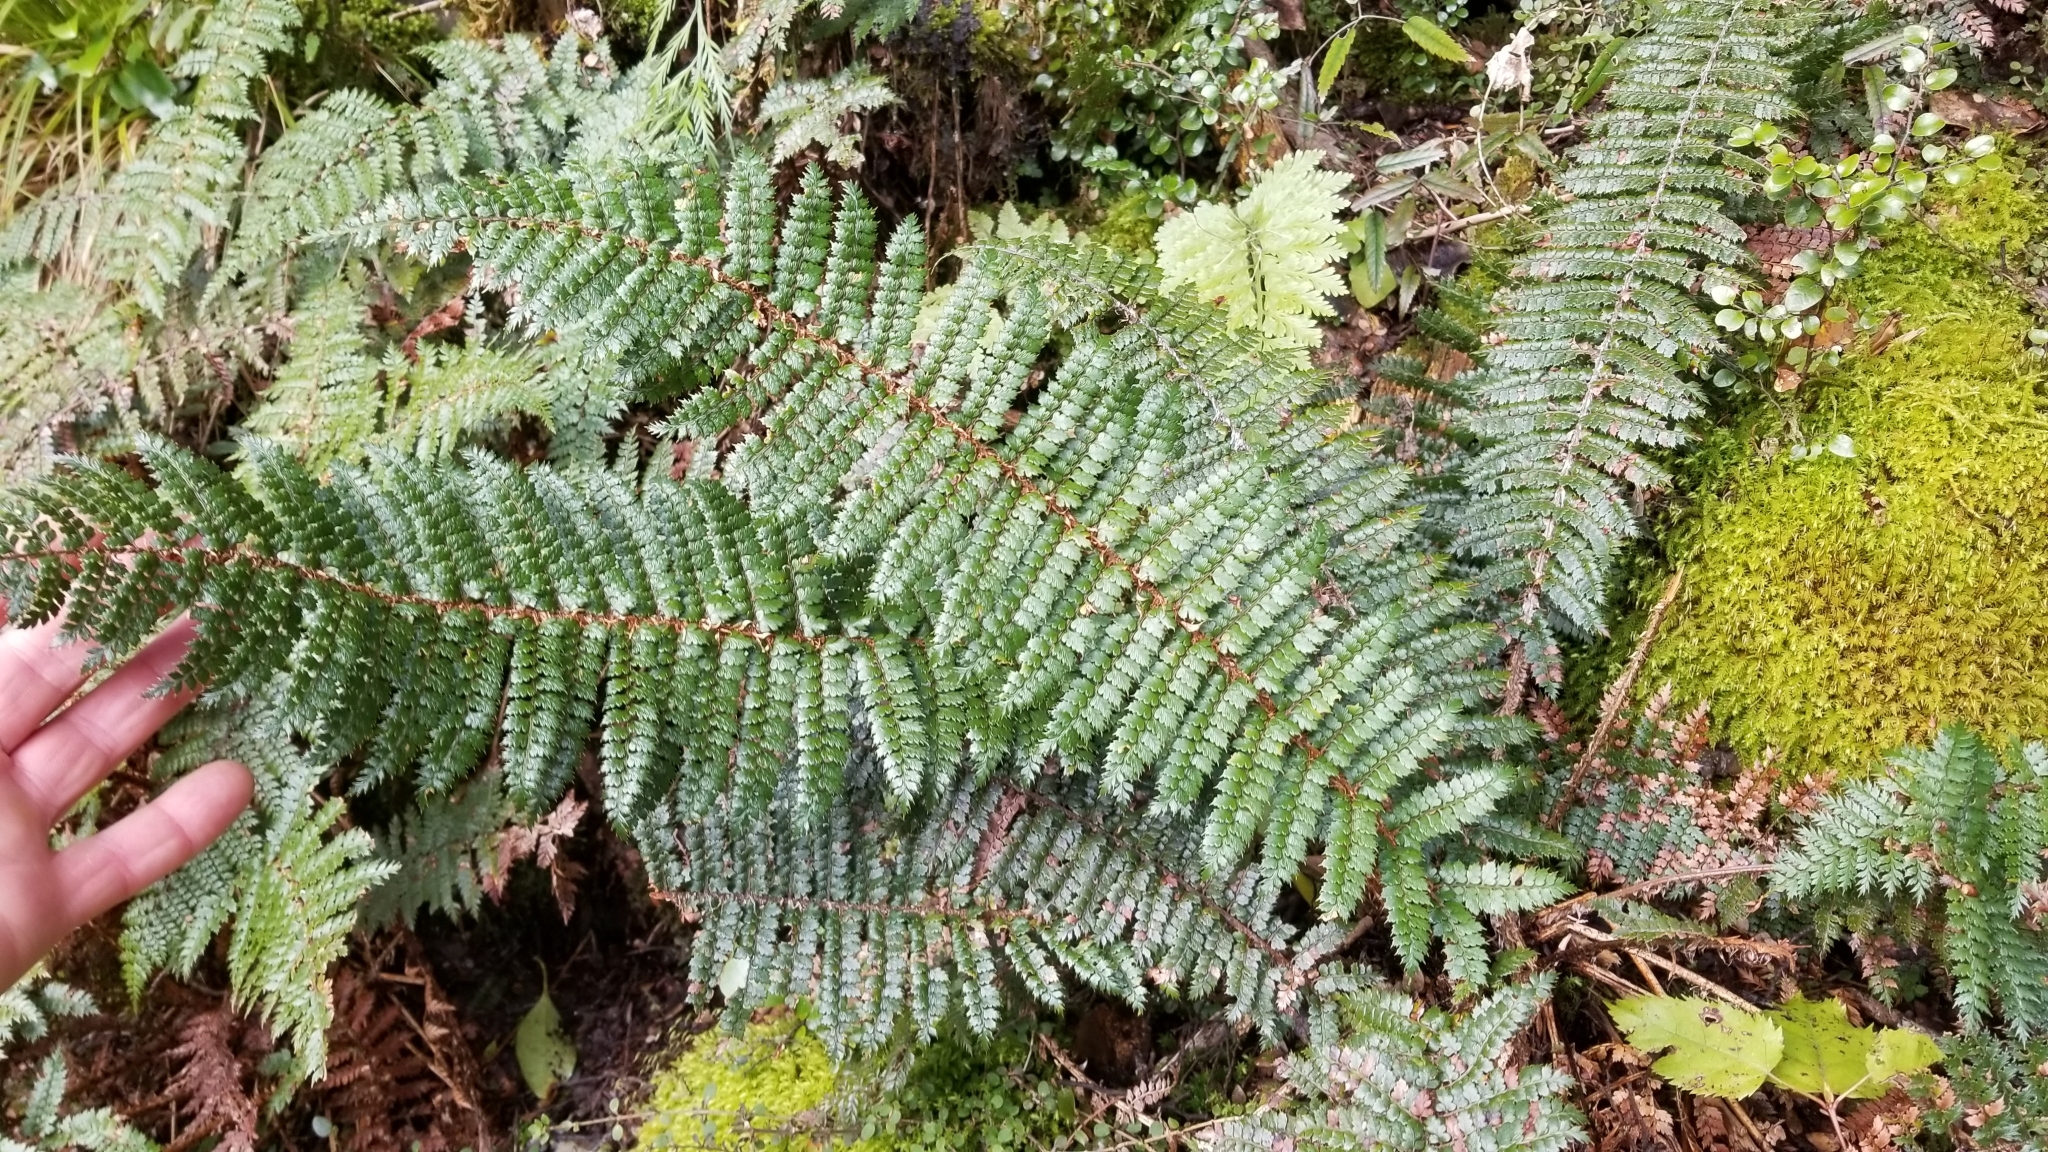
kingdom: Plantae
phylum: Tracheophyta
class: Polypodiopsida
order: Polypodiales
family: Dryopteridaceae
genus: Polystichum
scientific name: Polystichum vestitum
